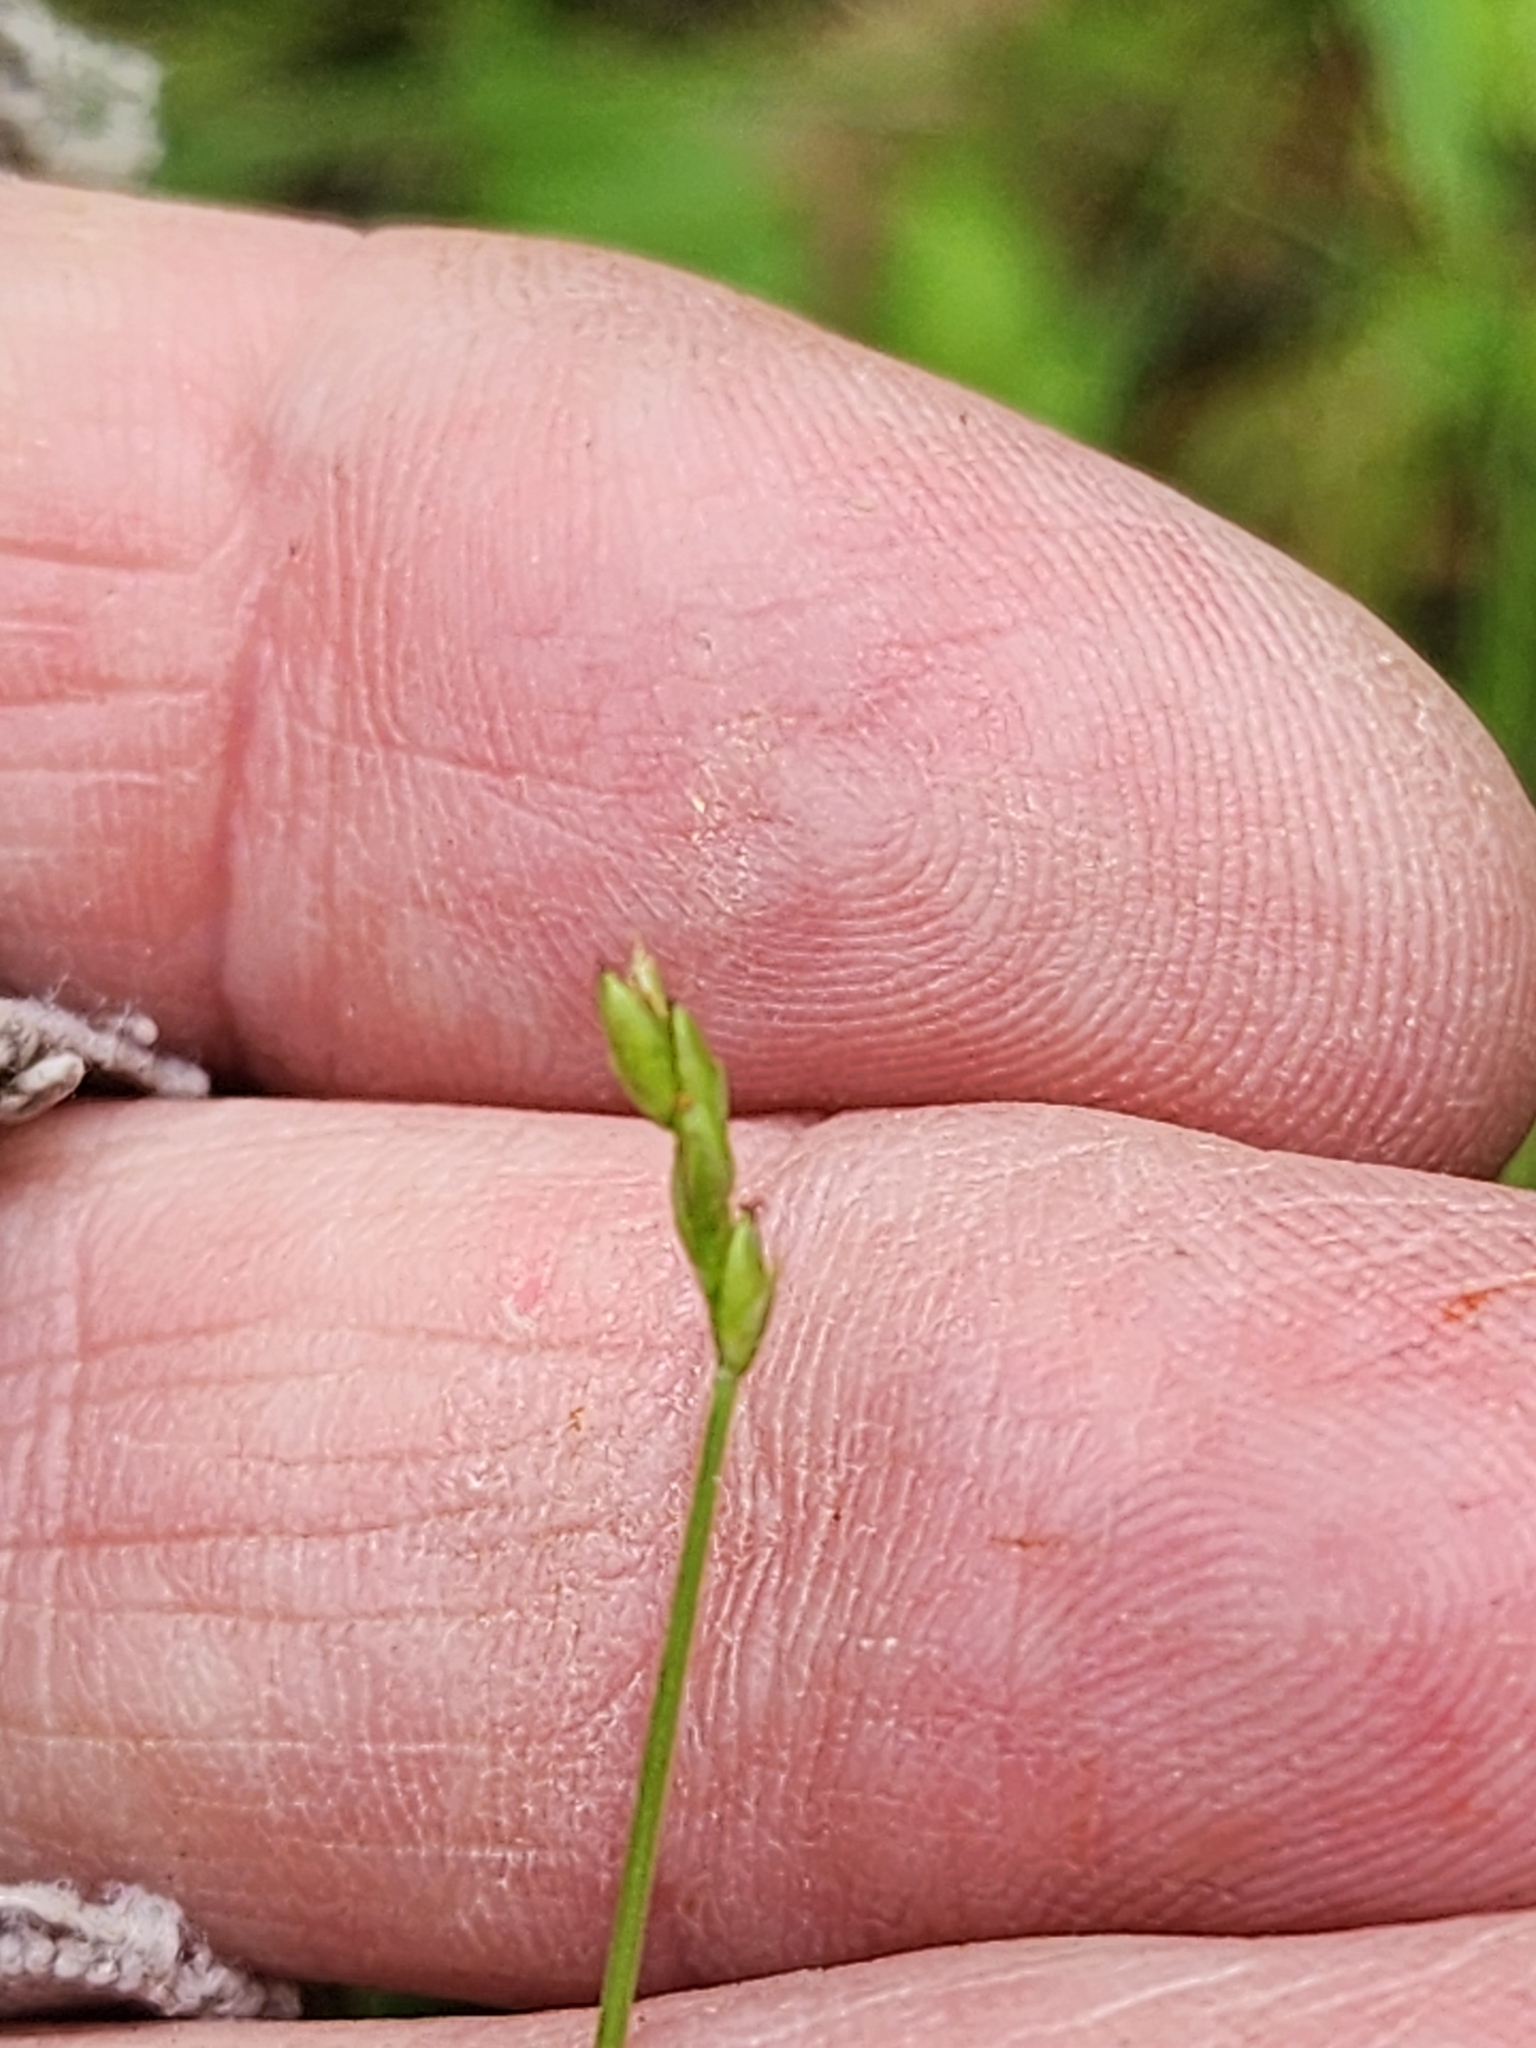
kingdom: Plantae
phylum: Tracheophyta
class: Liliopsida
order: Poales
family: Cyperaceae
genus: Carex
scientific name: Carex leptalea
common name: Bristly-stalked sedge
